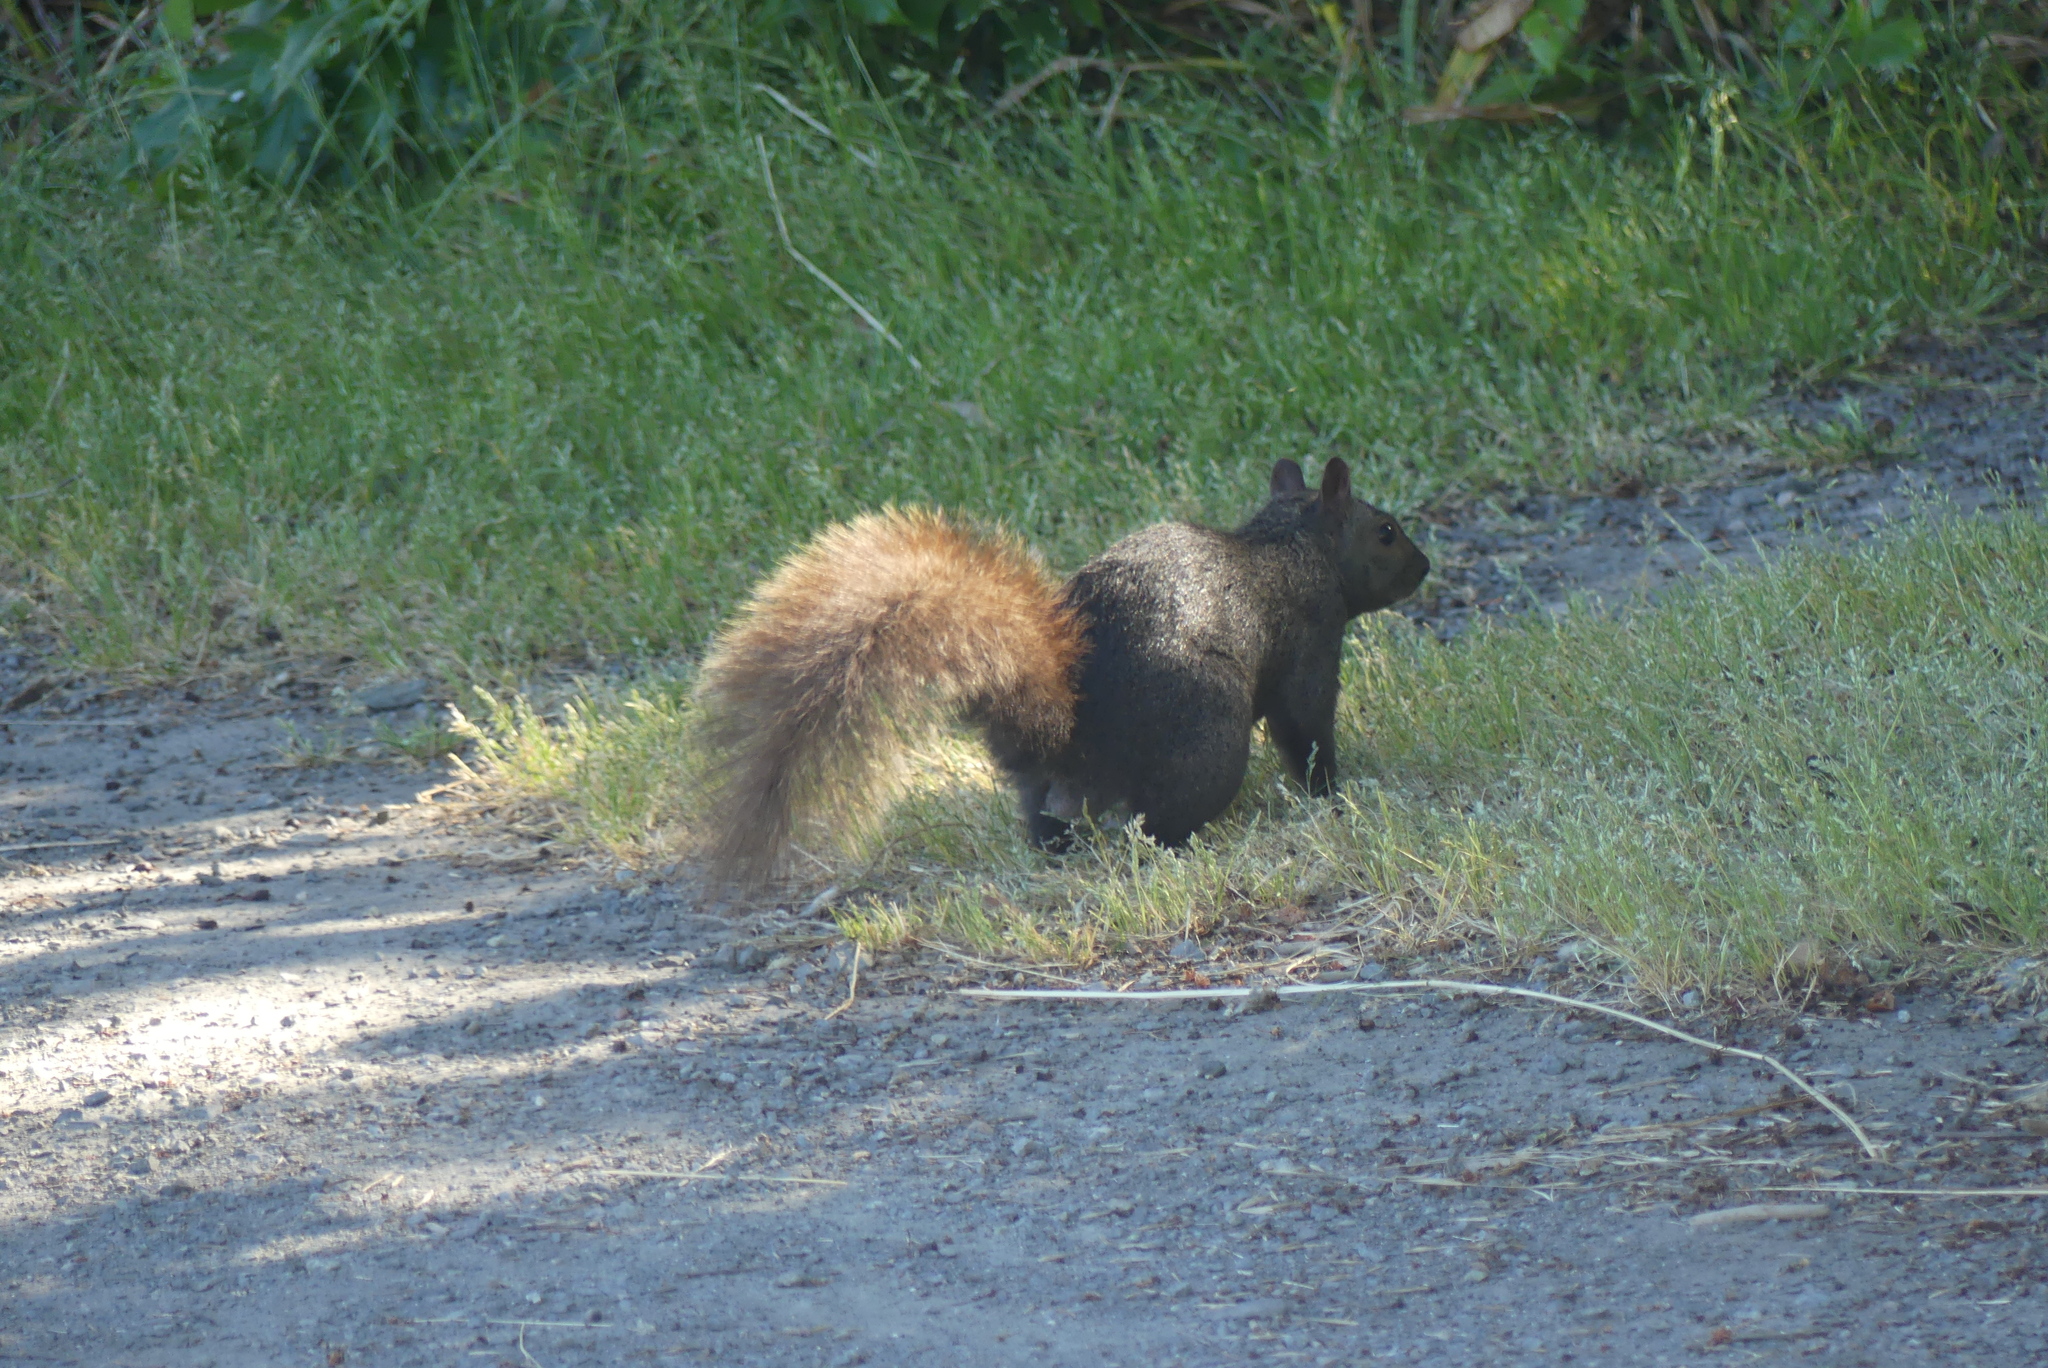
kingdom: Animalia
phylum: Chordata
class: Mammalia
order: Rodentia
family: Sciuridae
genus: Sciurus
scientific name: Sciurus carolinensis
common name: Eastern gray squirrel
